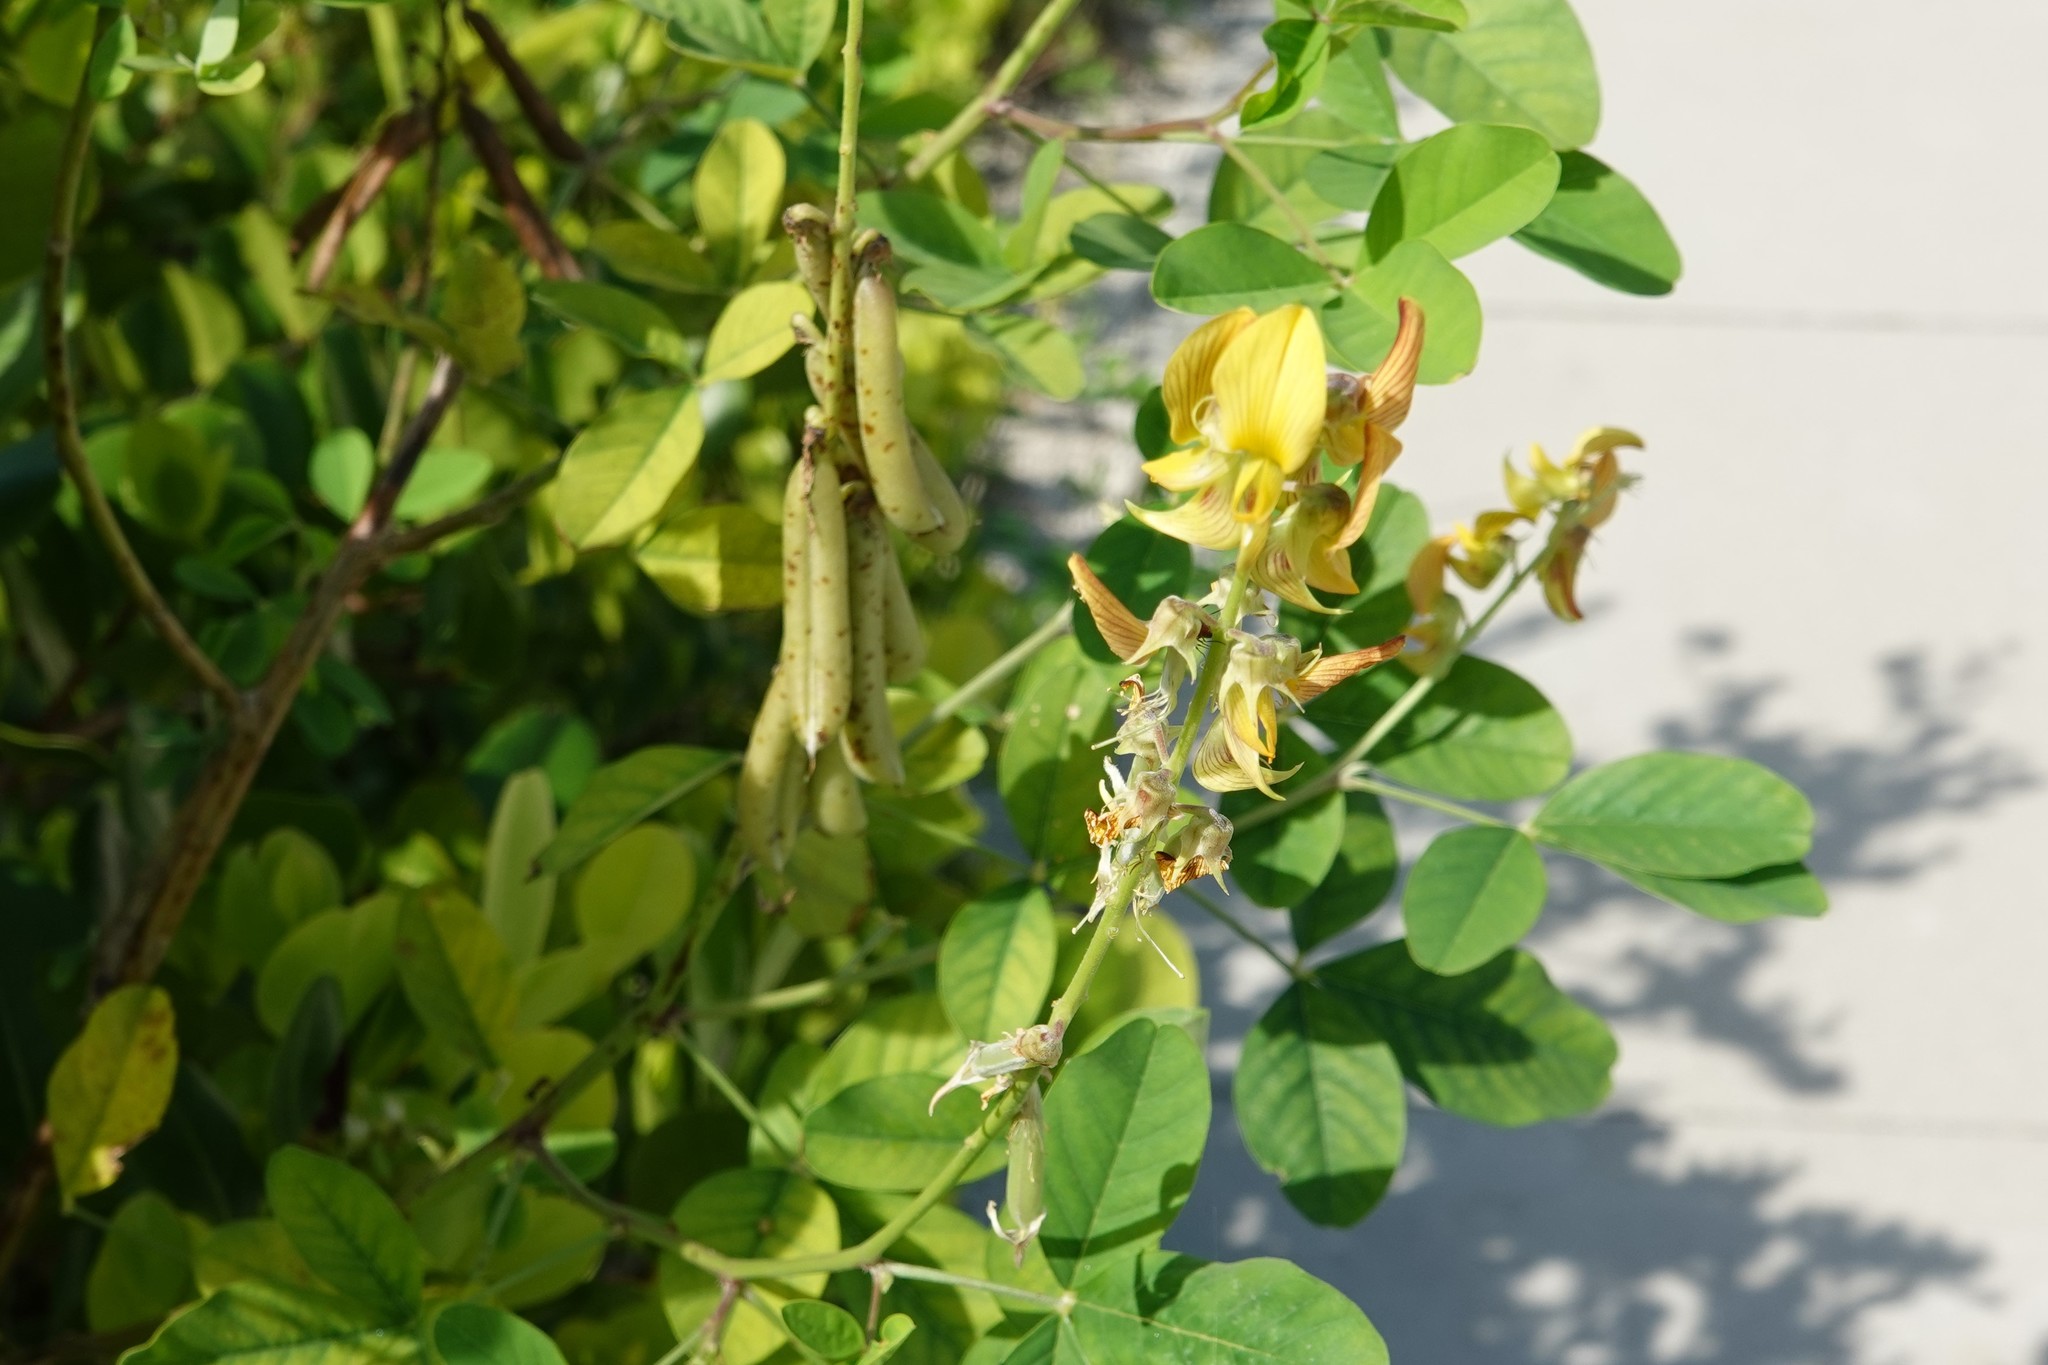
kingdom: Plantae
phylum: Tracheophyta
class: Magnoliopsida
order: Fabales
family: Fabaceae
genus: Crotalaria
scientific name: Crotalaria pallida
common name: Smooth rattlebox
